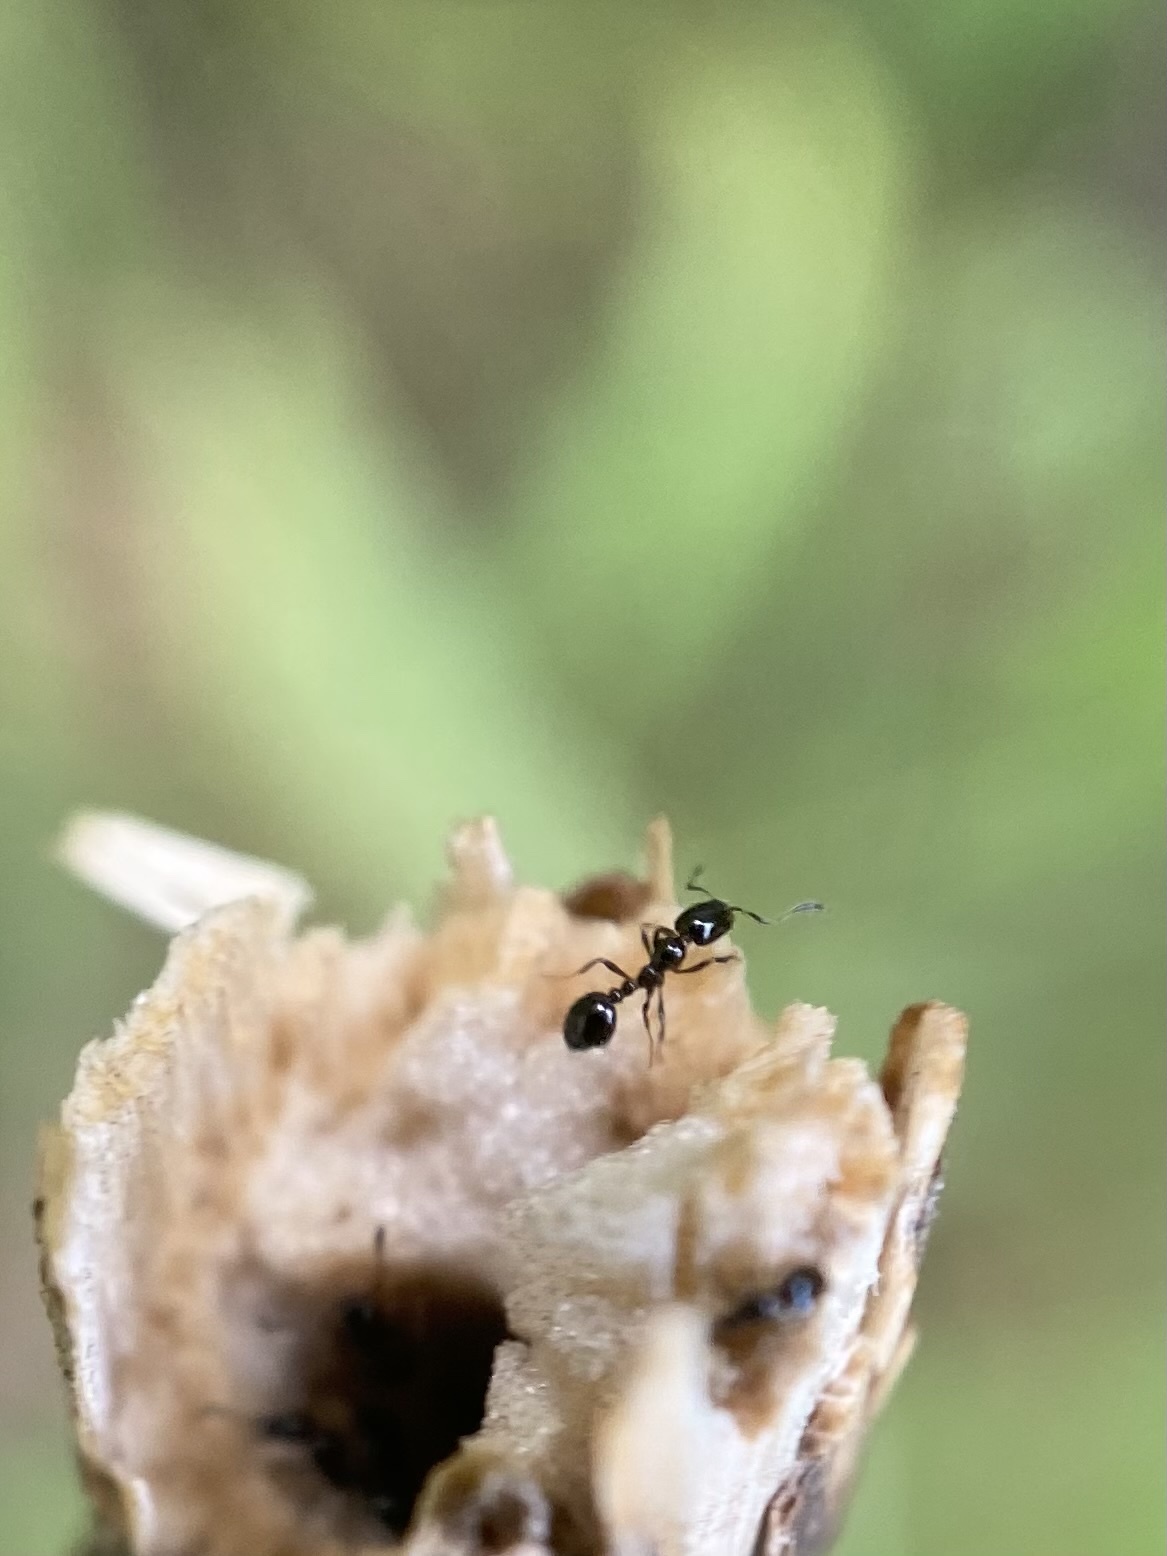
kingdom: Animalia
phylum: Arthropoda
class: Insecta
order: Hymenoptera
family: Formicidae
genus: Monomorium
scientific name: Monomorium minimum
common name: Little black ant
